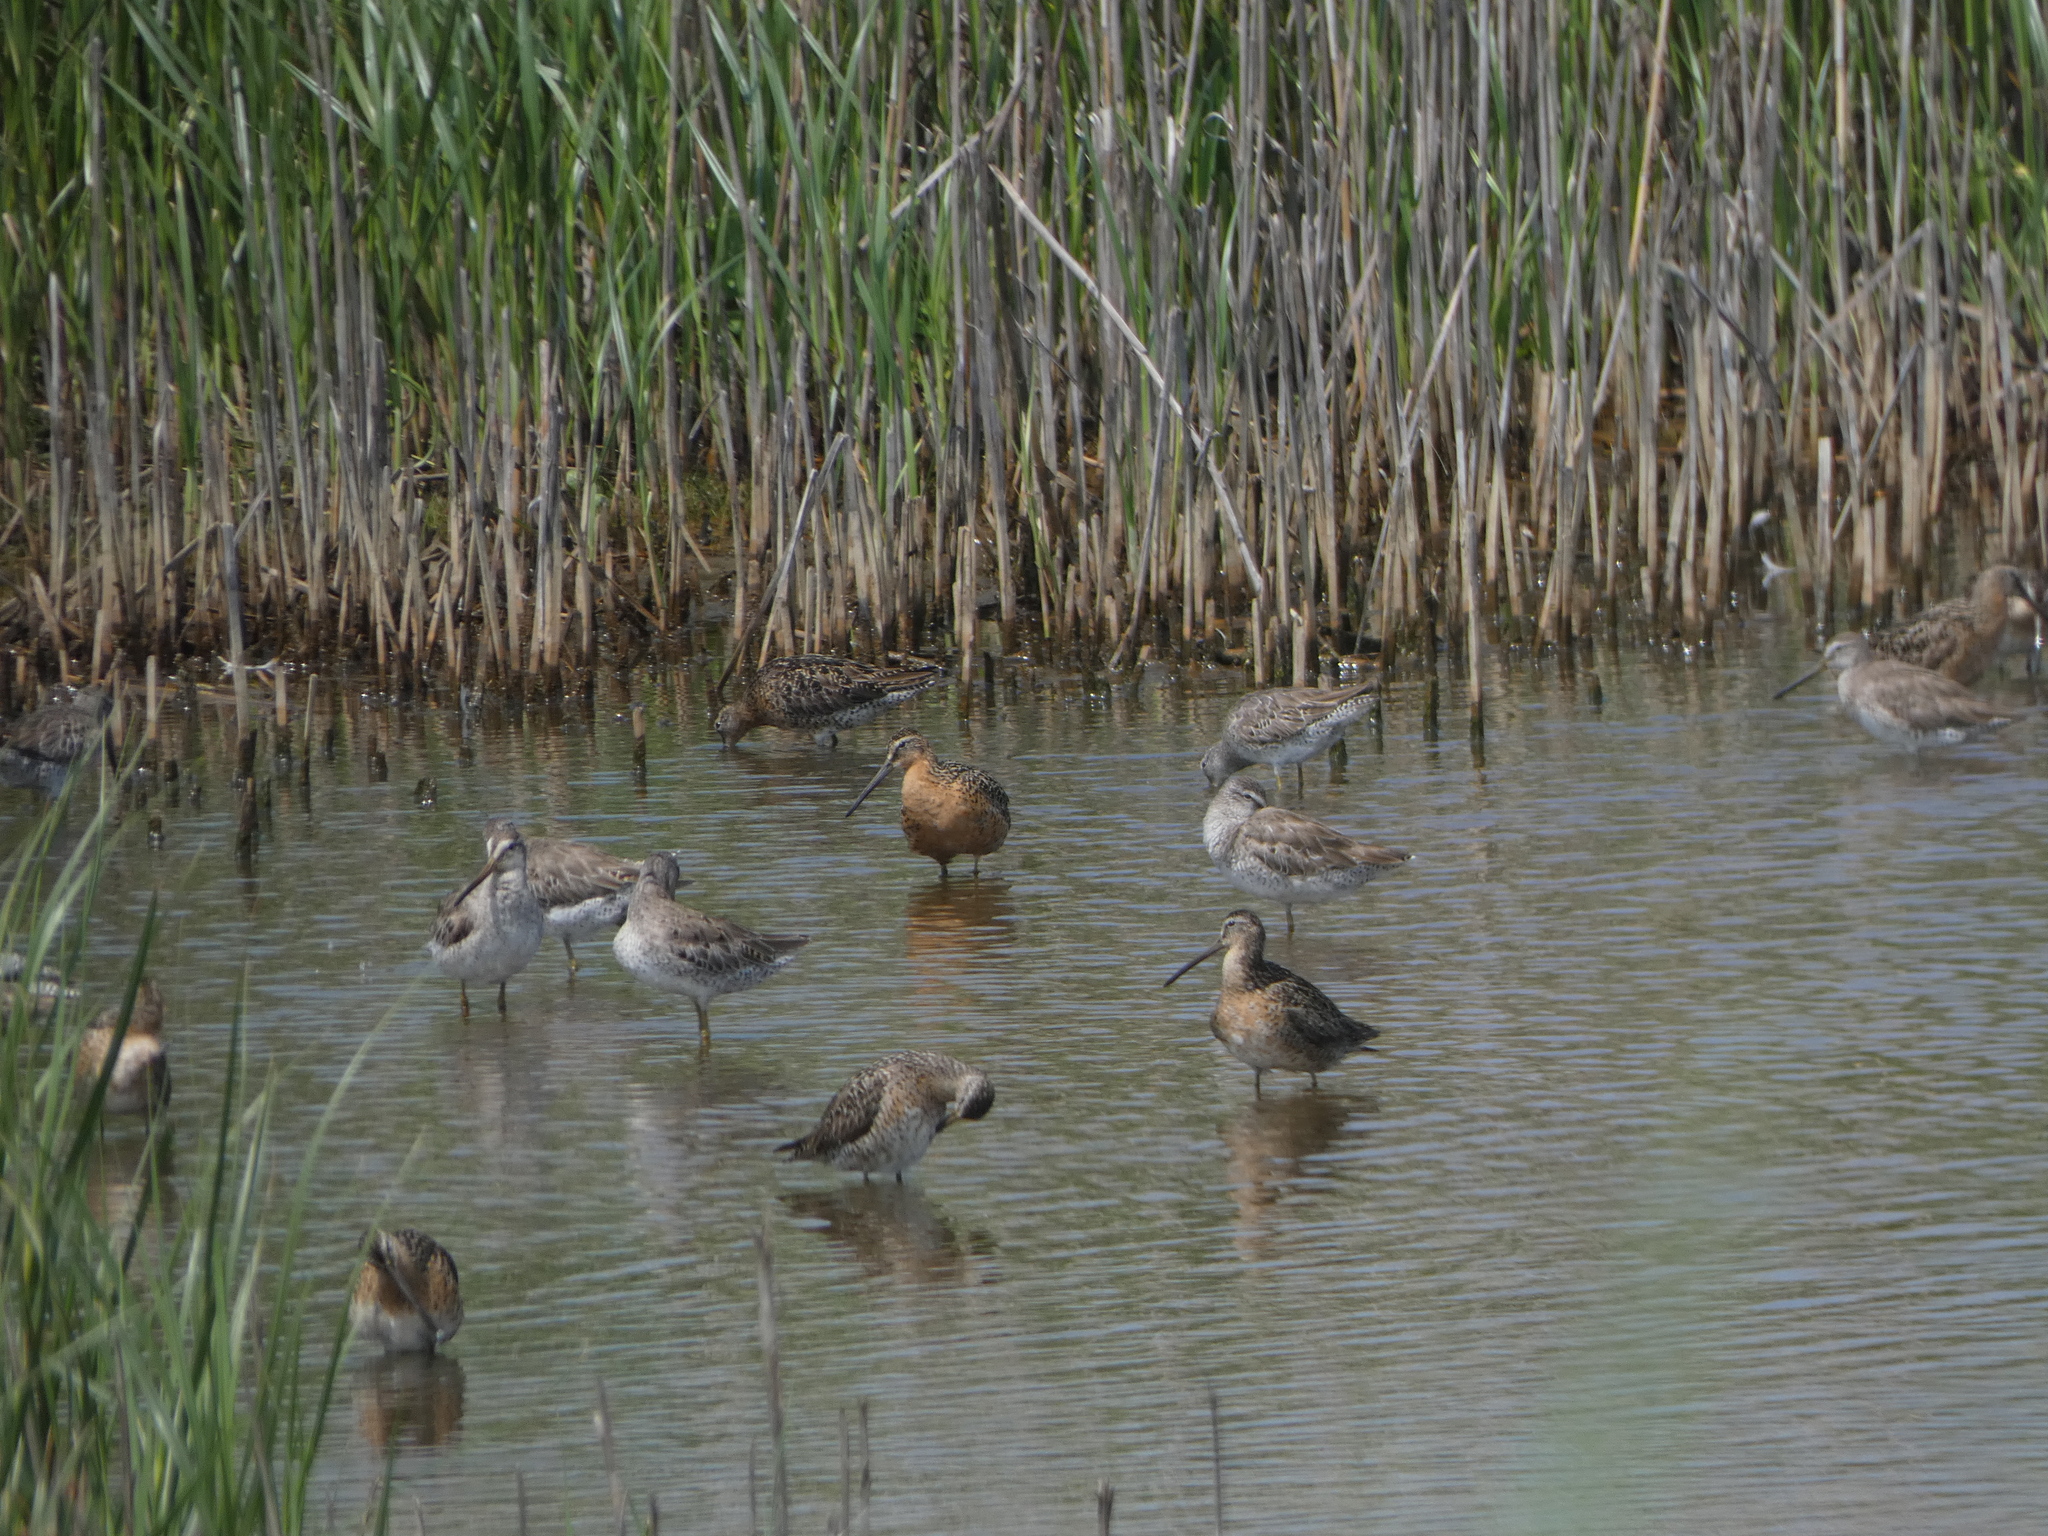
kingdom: Animalia
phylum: Chordata
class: Aves
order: Charadriiformes
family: Scolopacidae
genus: Limnodromus
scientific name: Limnodromus griseus
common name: Short-billed dowitcher
